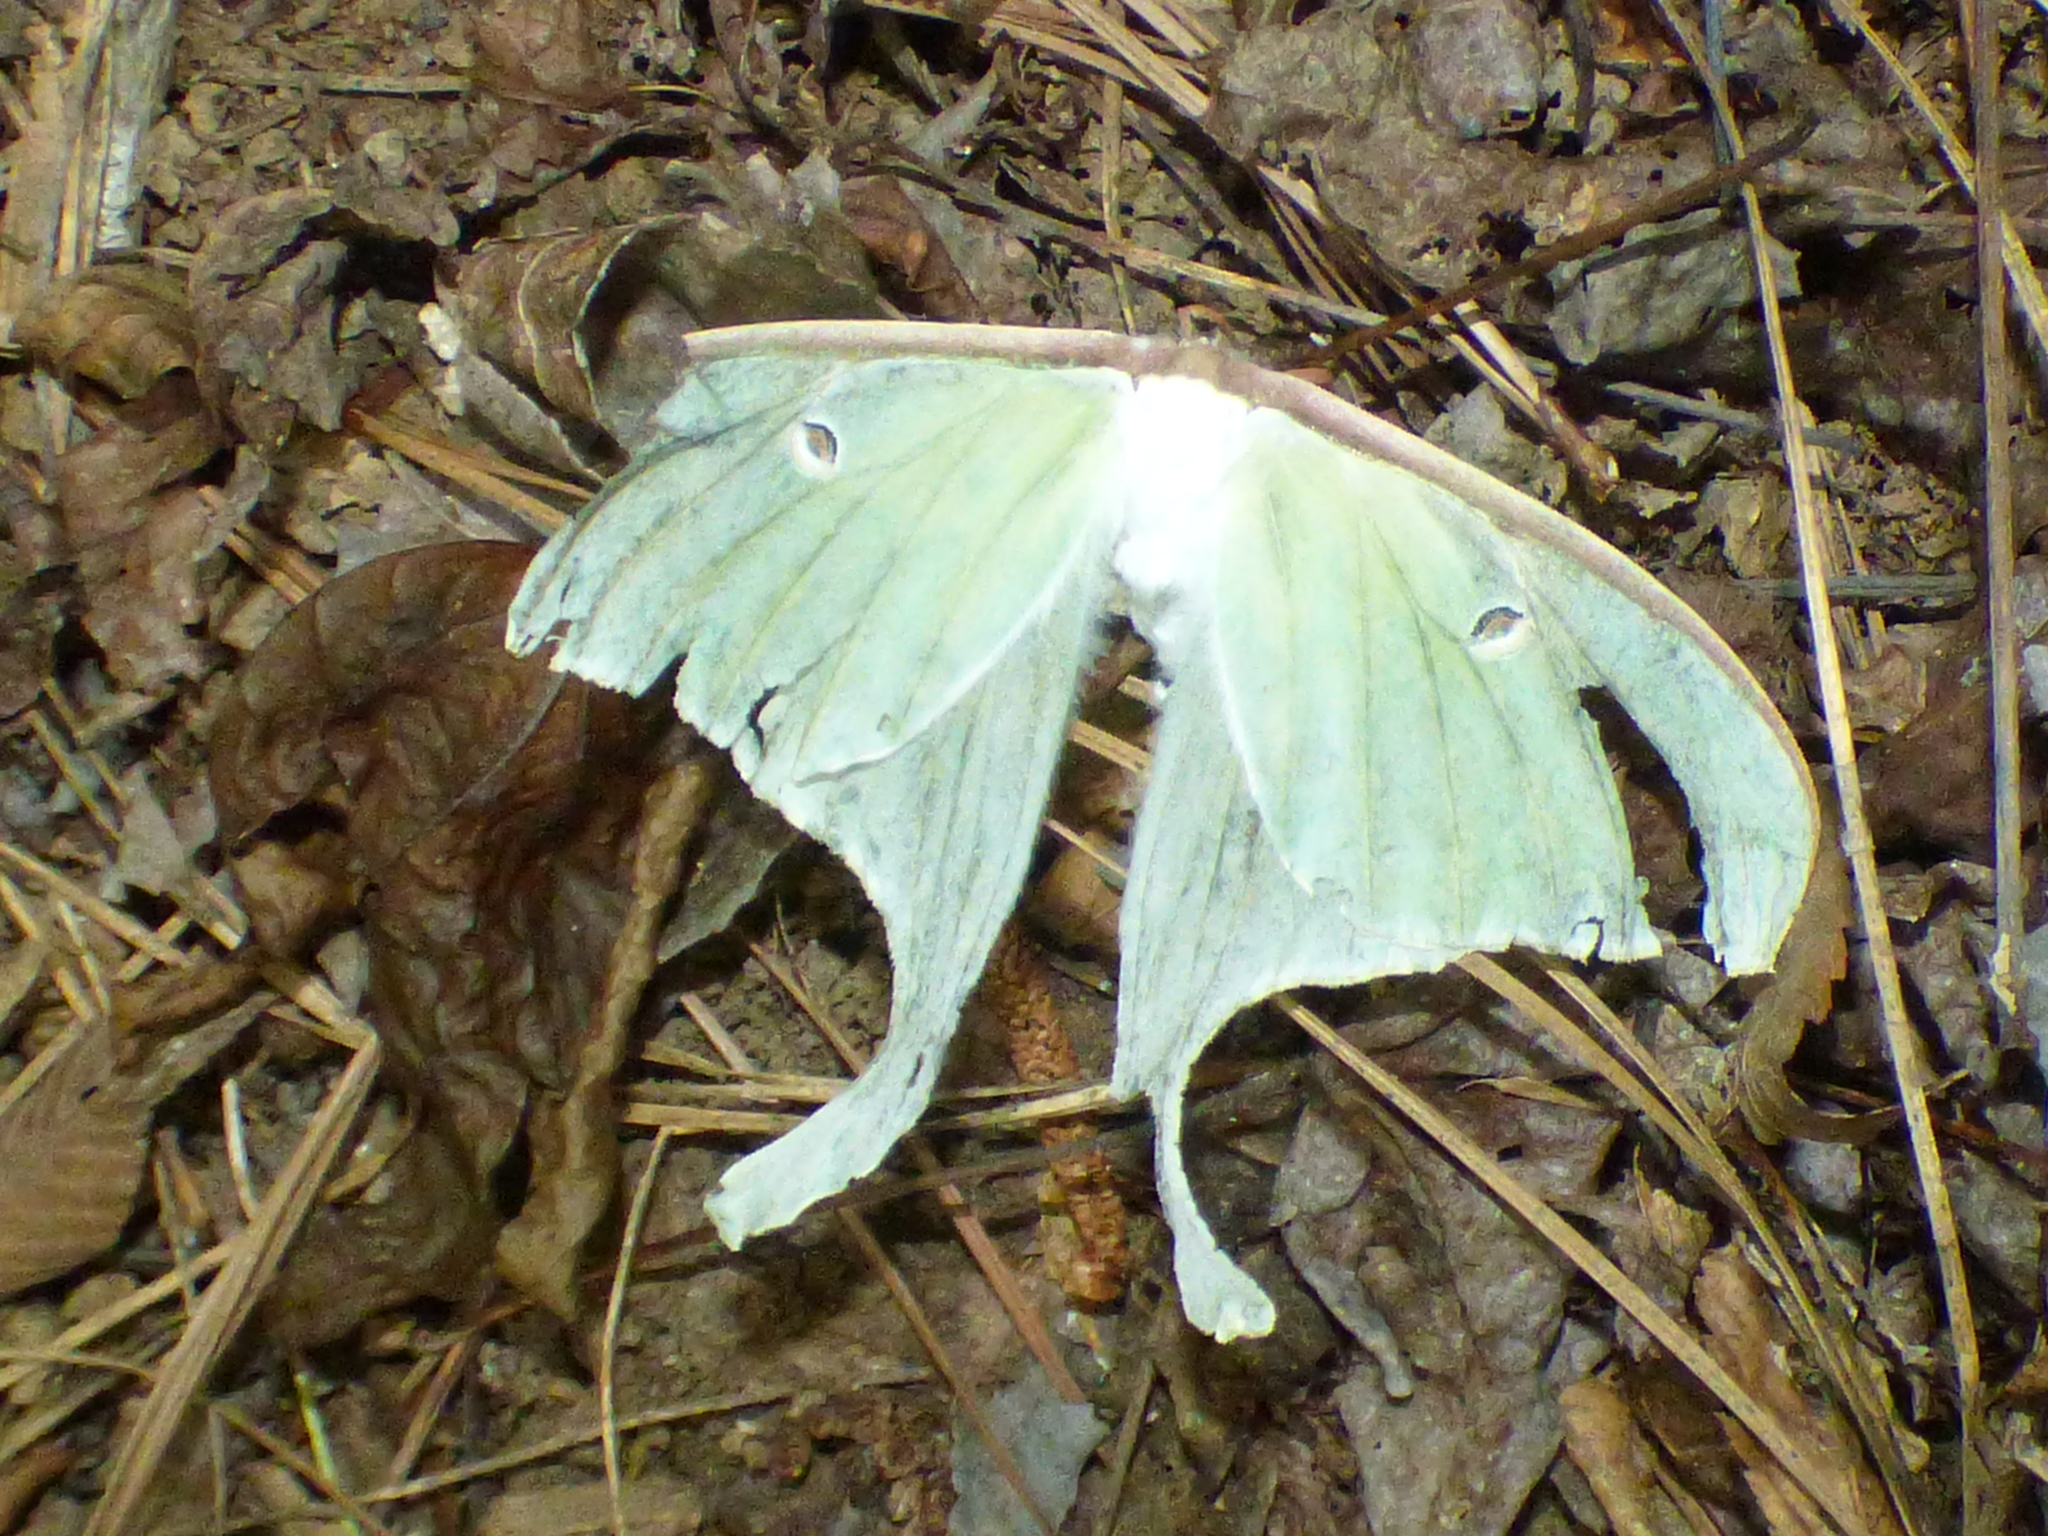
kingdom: Animalia
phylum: Arthropoda
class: Insecta
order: Lepidoptera
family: Saturniidae
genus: Actias
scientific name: Actias luna
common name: Luna moth
